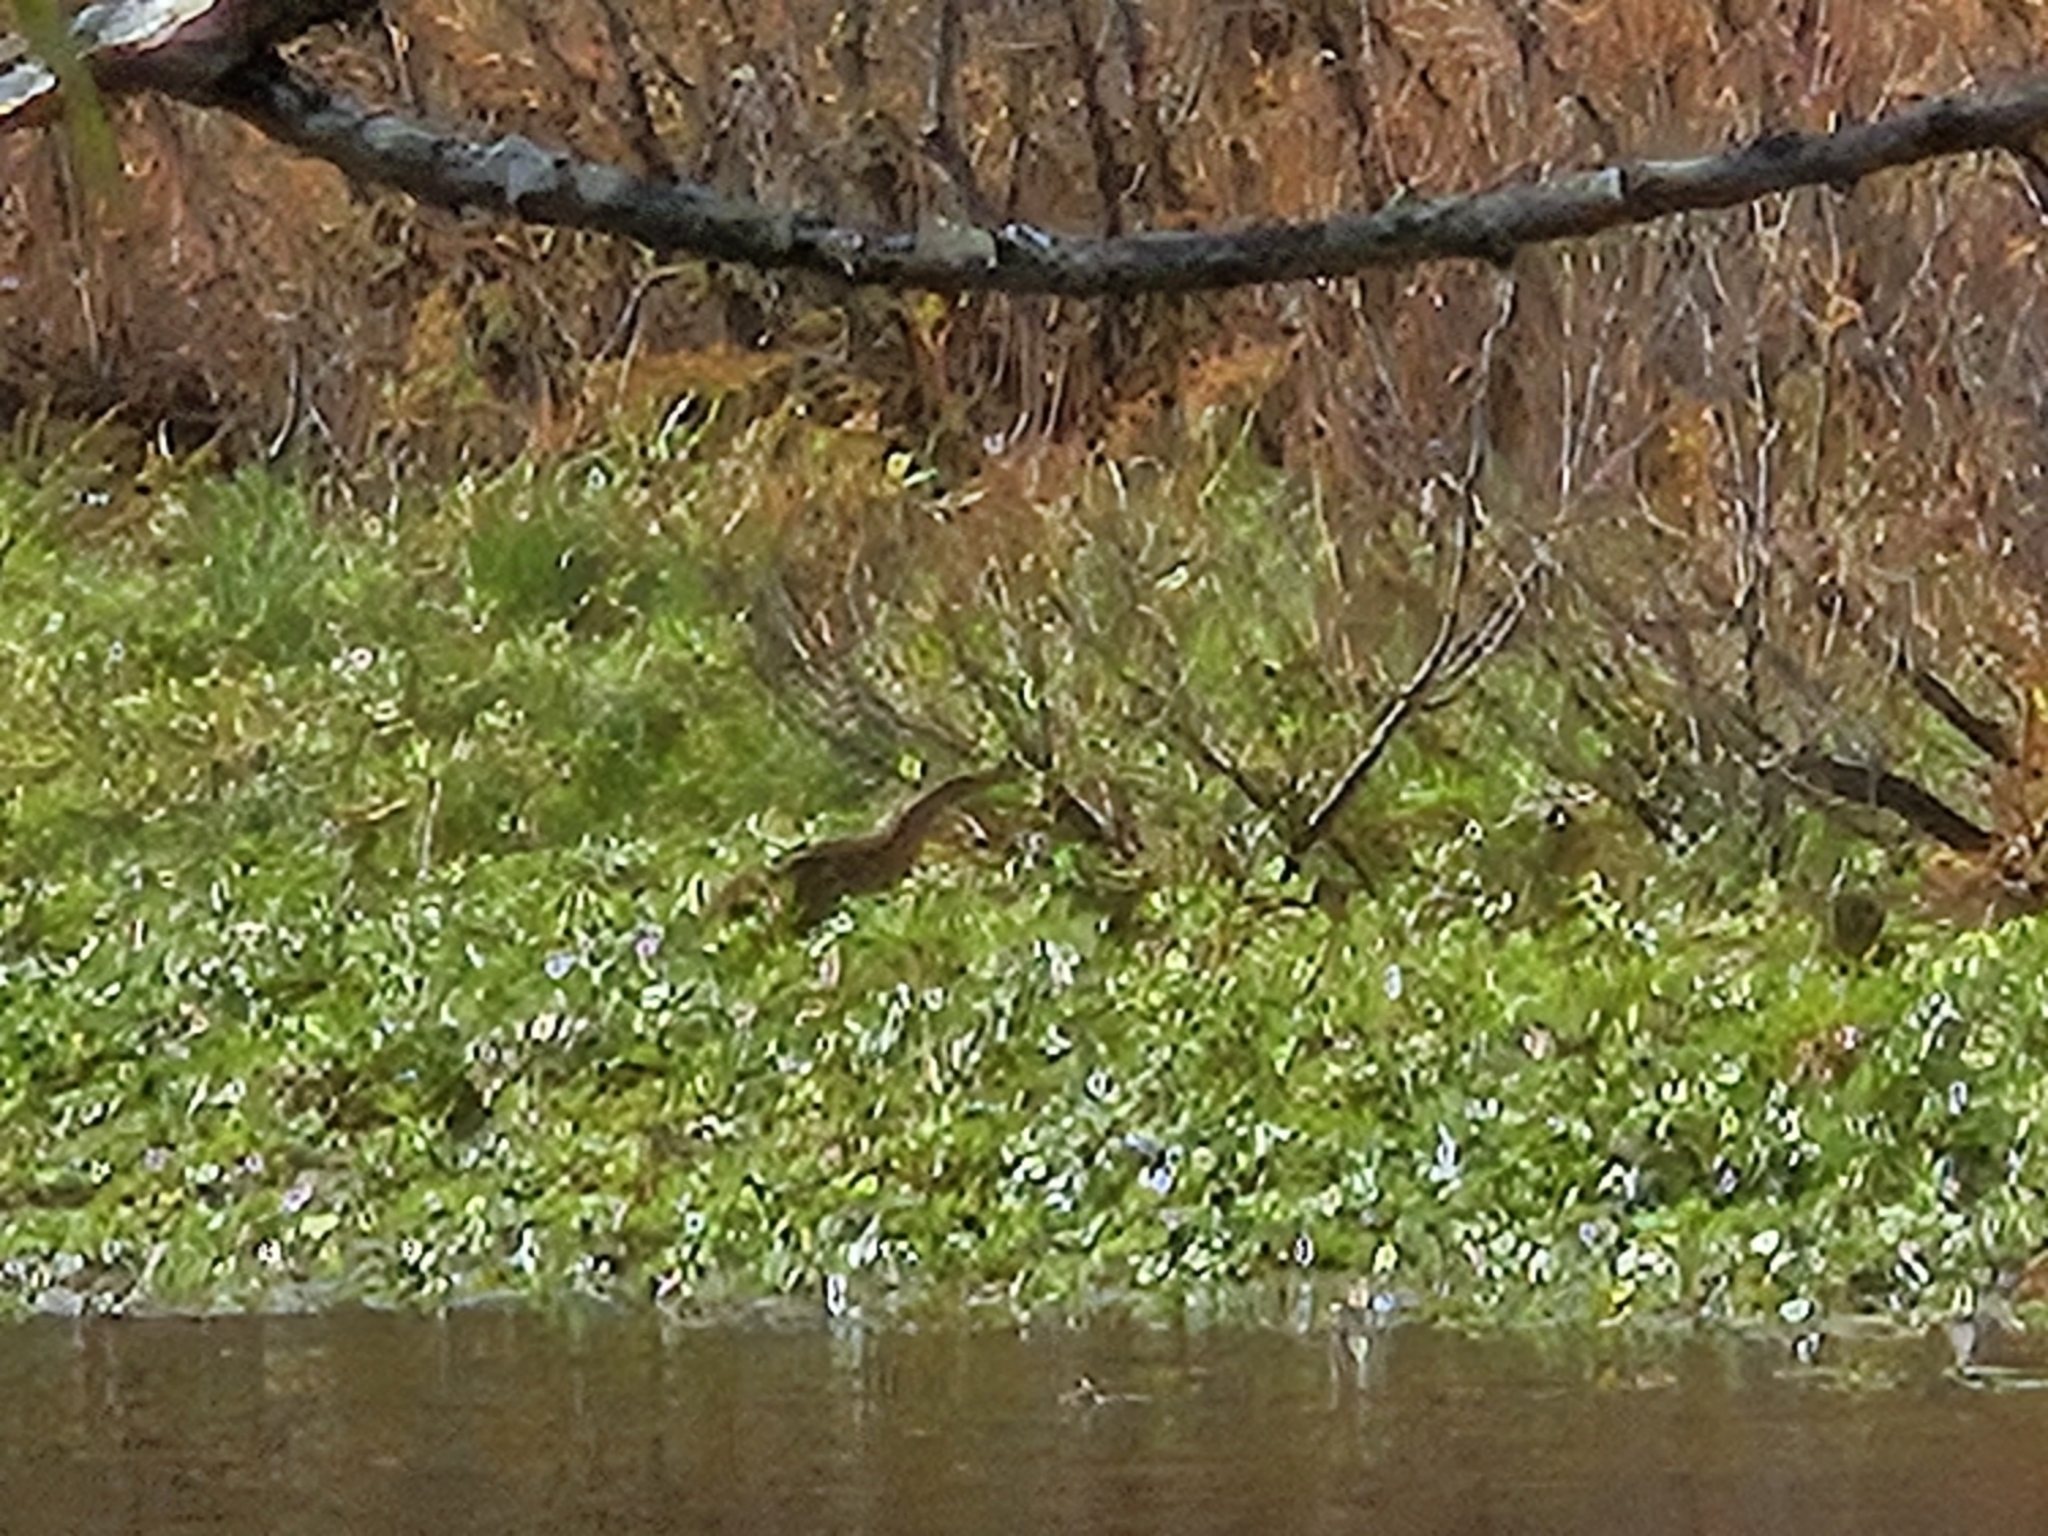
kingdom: Animalia
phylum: Chordata
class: Aves
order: Pelecaniformes
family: Ardeidae
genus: Botaurus
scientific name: Botaurus lentiginosus
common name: American bittern
